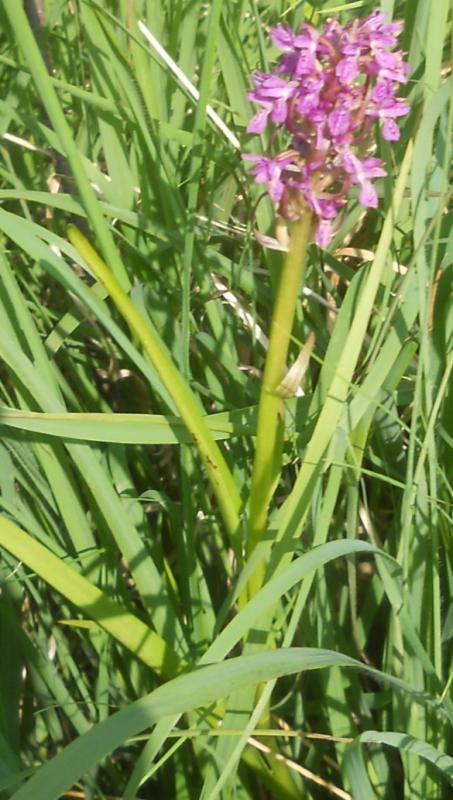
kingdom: Plantae
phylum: Tracheophyta
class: Liliopsida
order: Asparagales
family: Orchidaceae
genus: Dactylorhiza
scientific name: Dactylorhiza incarnata
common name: Early marsh-orchid
